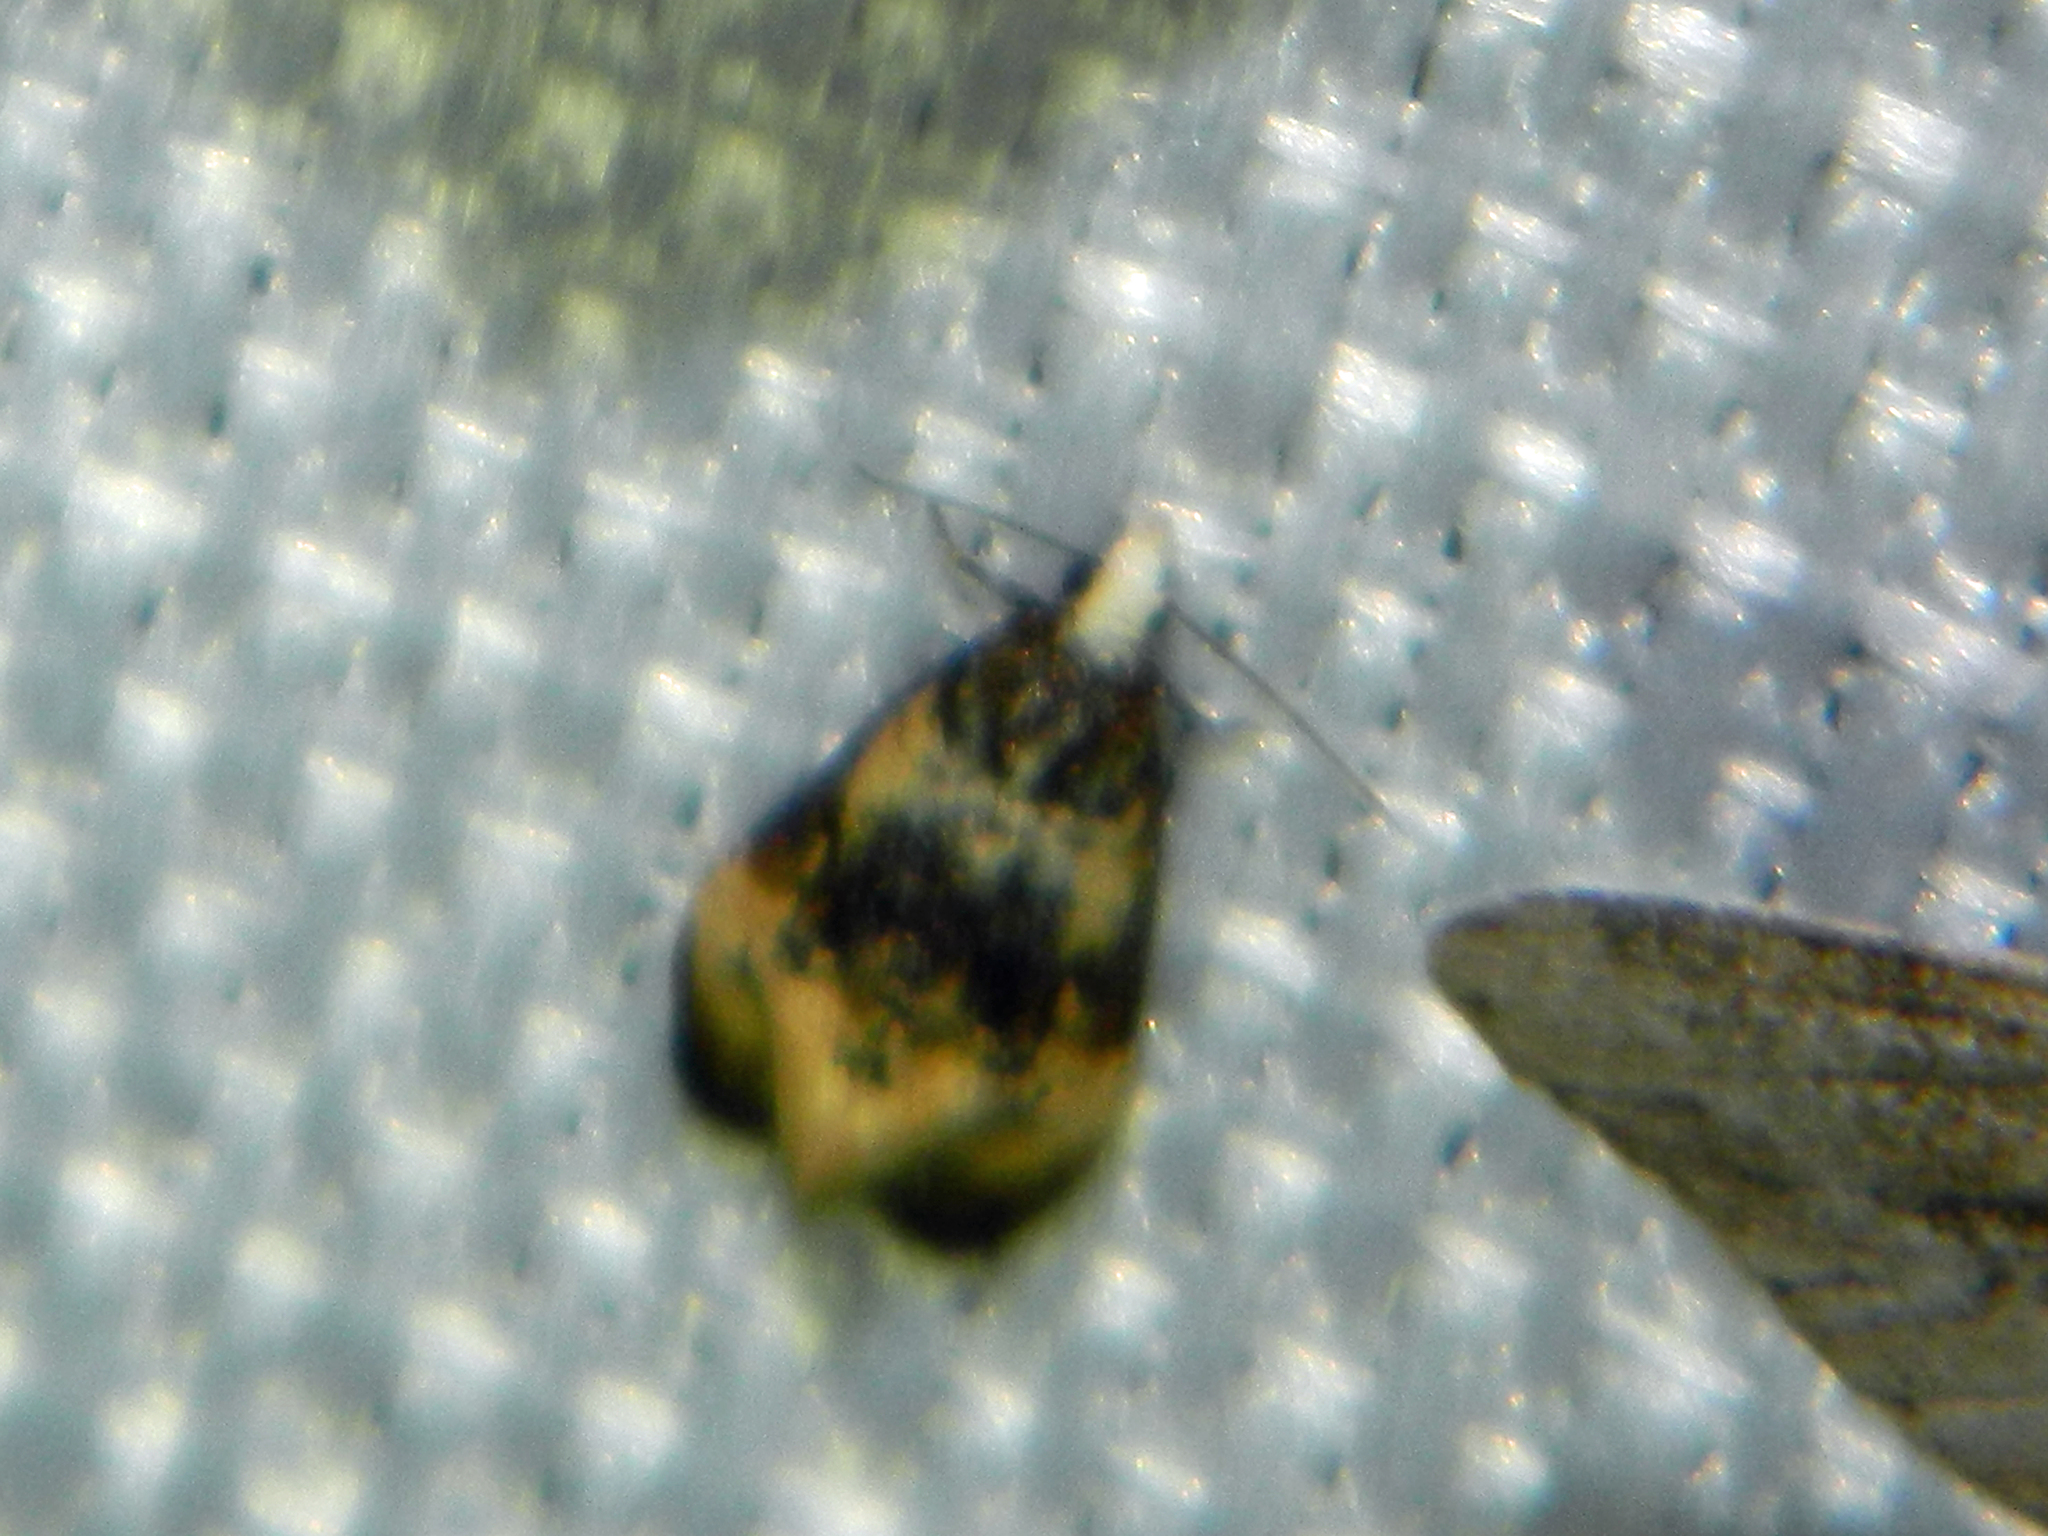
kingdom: Animalia
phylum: Arthropoda
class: Insecta
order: Lepidoptera
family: Tortricidae
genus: Phalonidia
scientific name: Phalonidia memoranda
